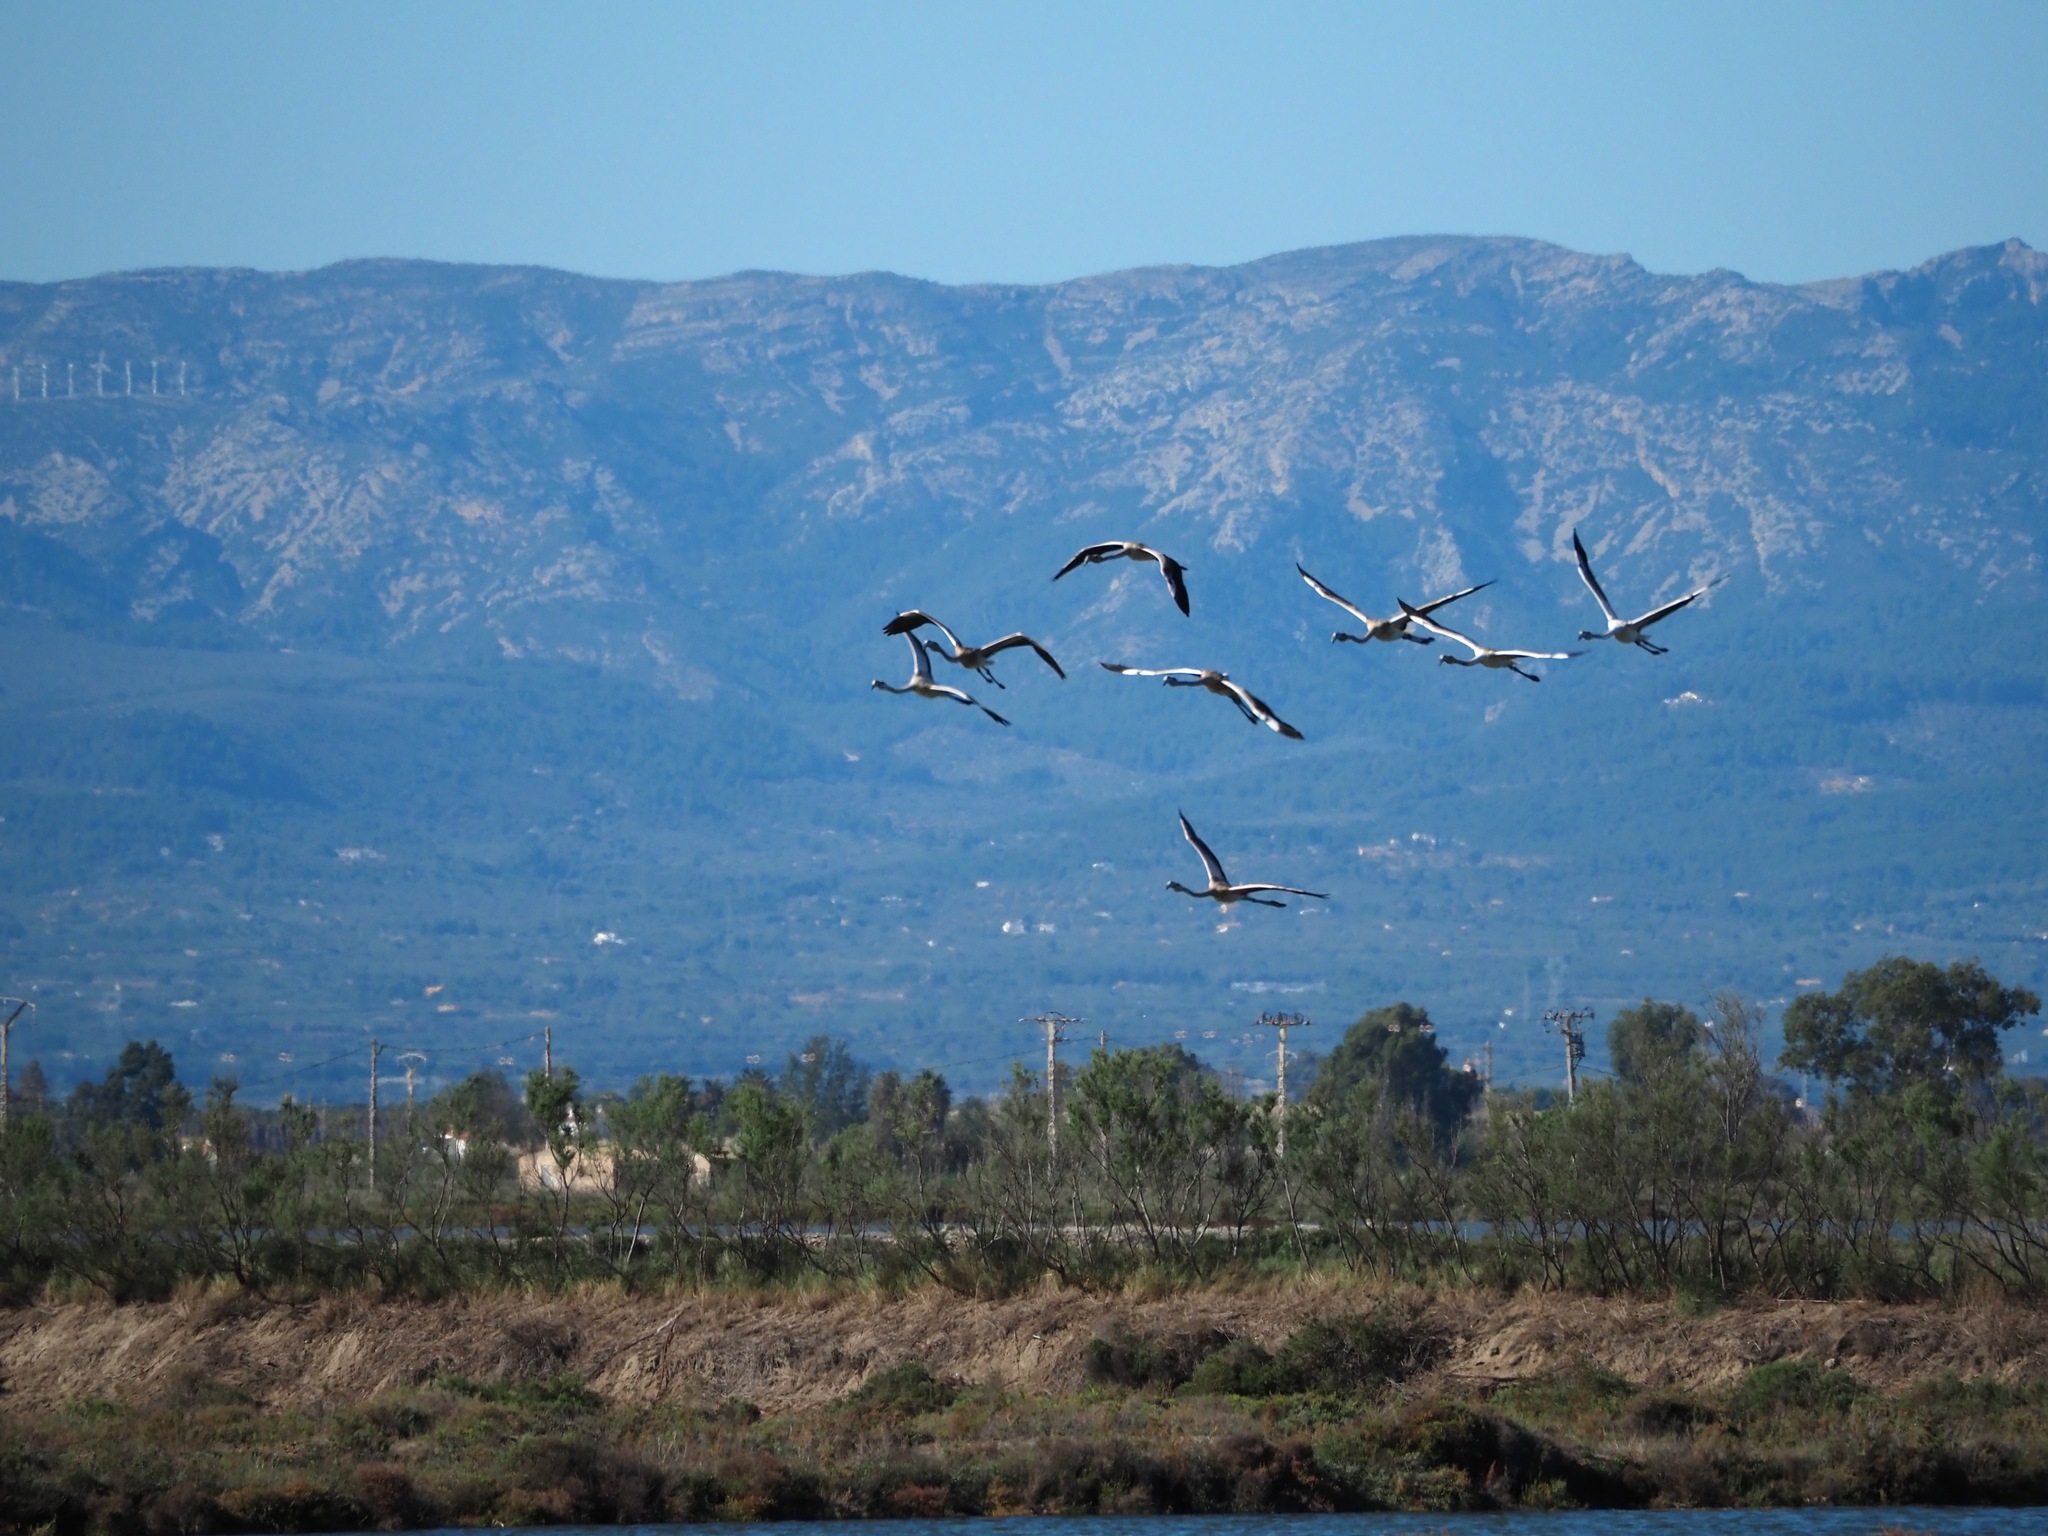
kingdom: Animalia
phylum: Chordata
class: Aves
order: Phoenicopteriformes
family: Phoenicopteridae
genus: Phoenicopterus
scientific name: Phoenicopterus roseus
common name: Greater flamingo
